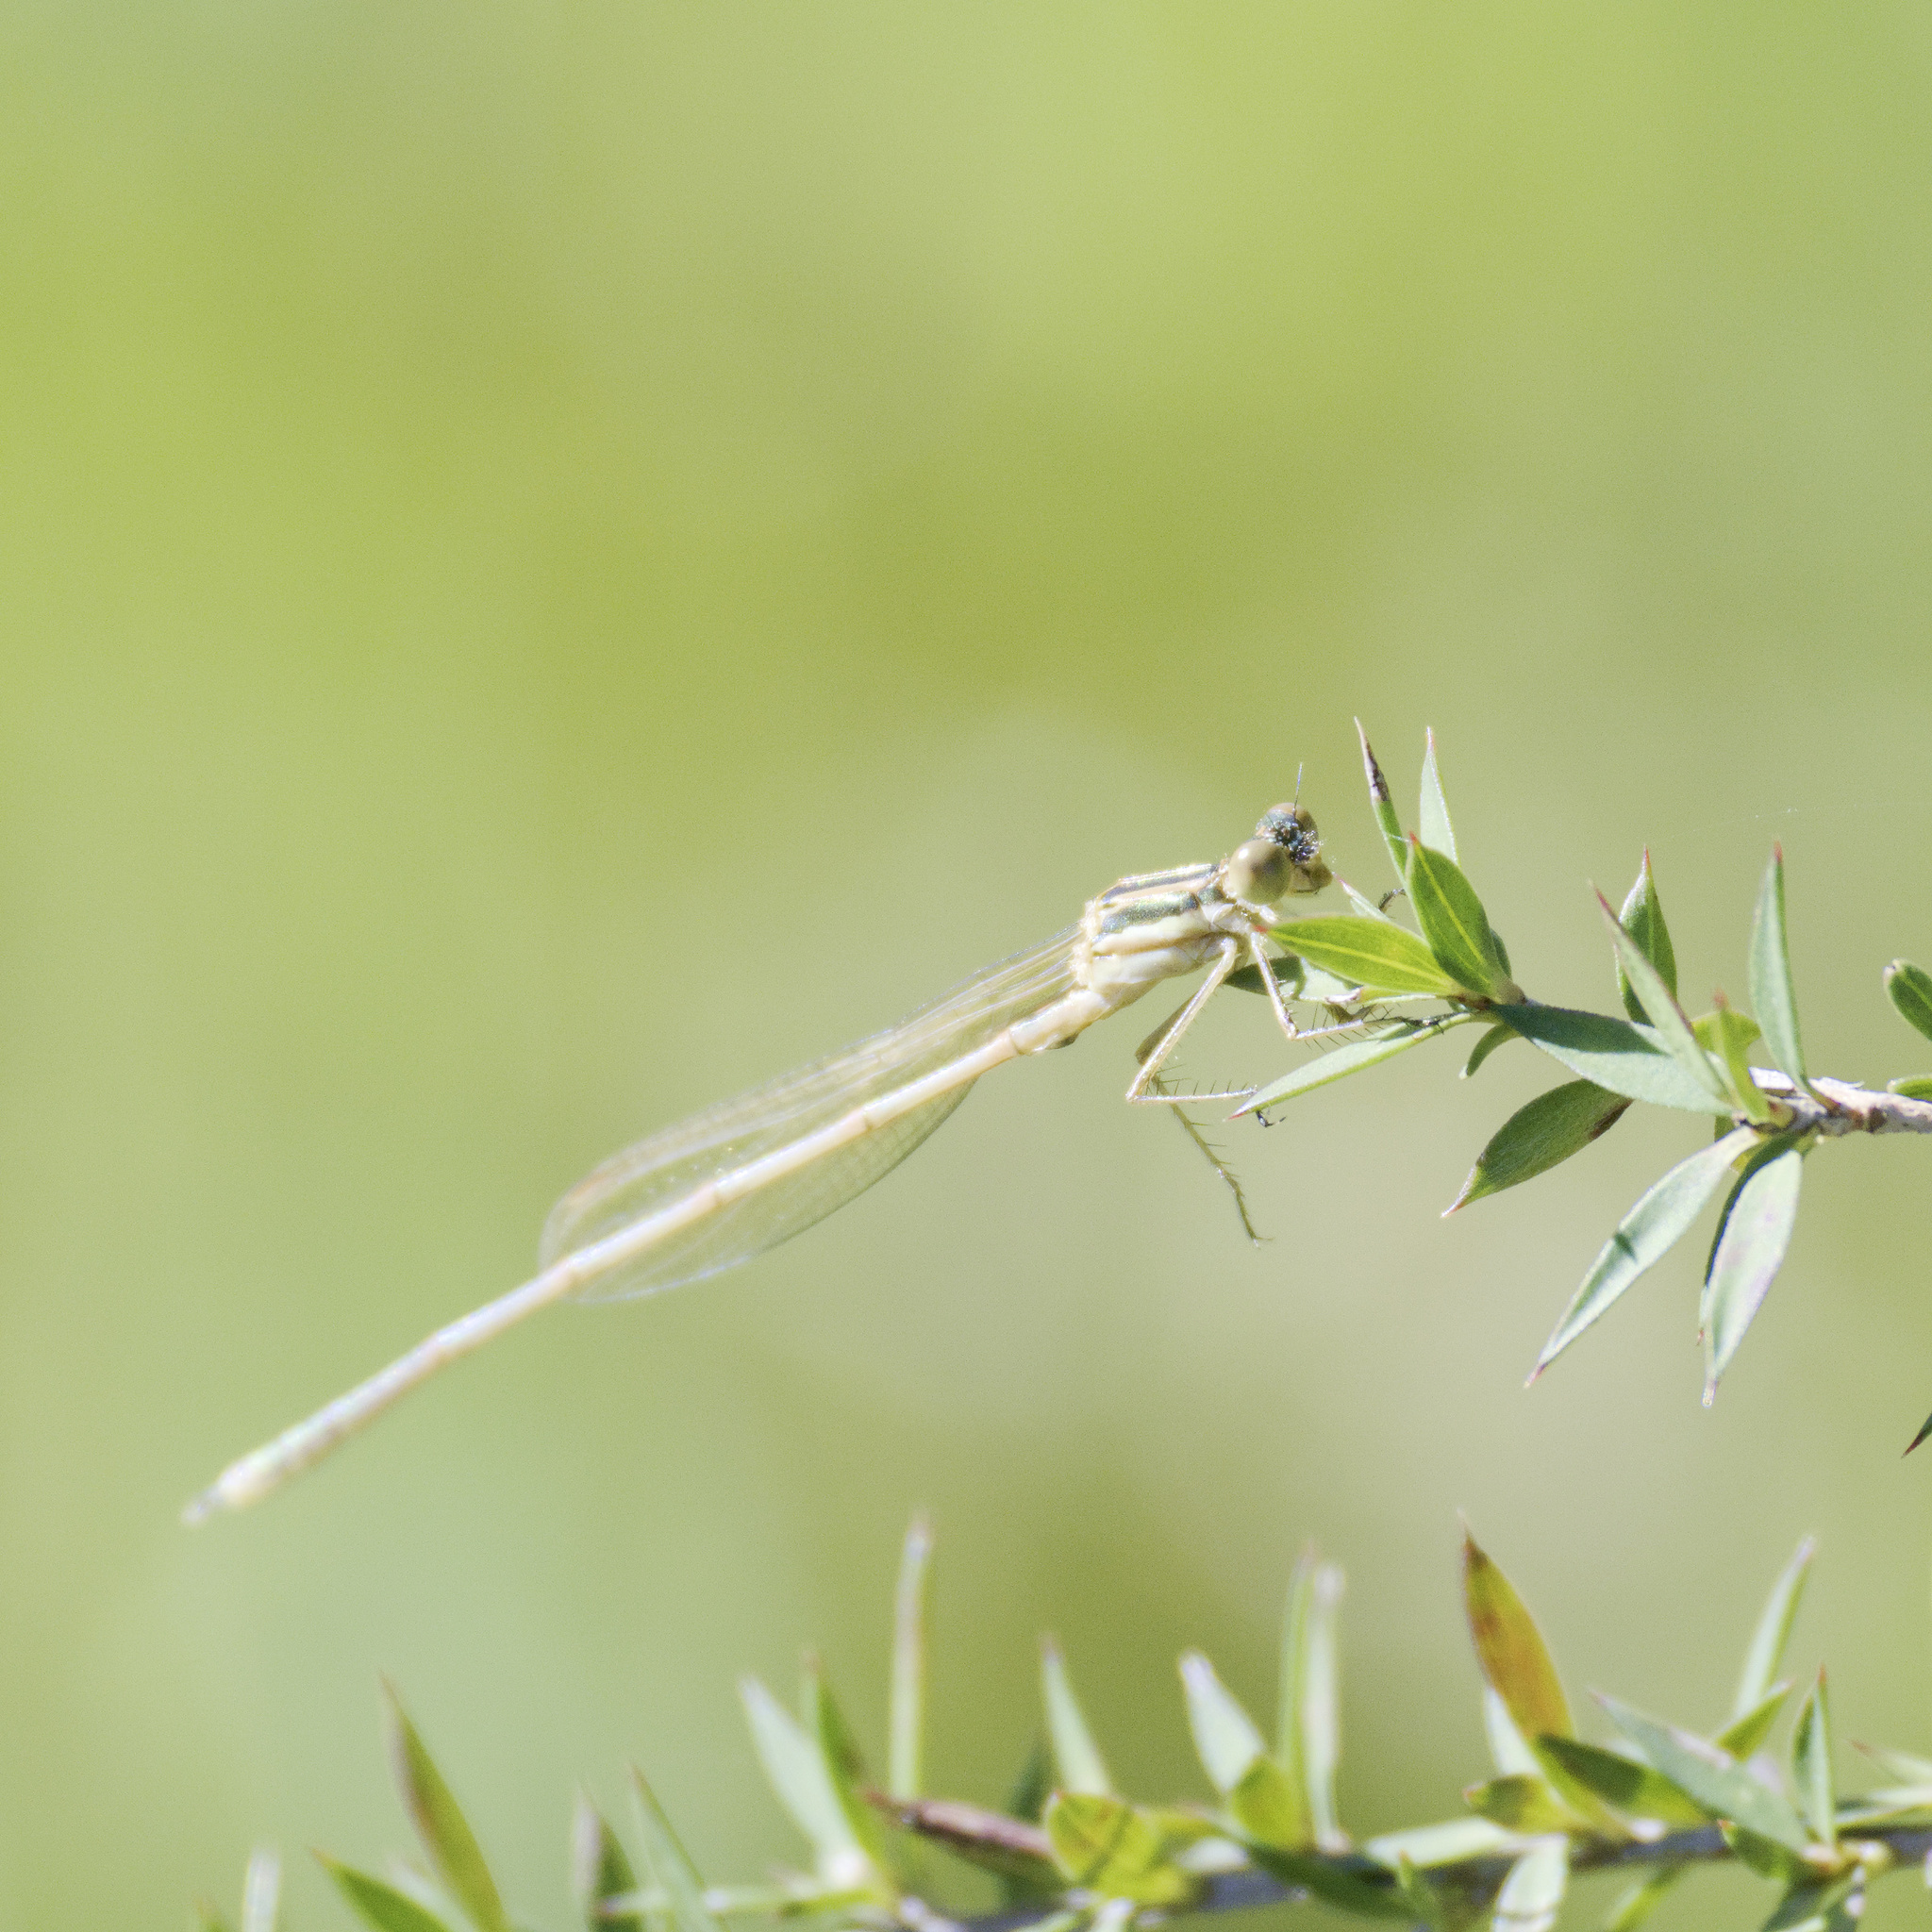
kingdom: Animalia
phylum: Arthropoda
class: Insecta
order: Odonata
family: Lestidae
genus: Austrolestes
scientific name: Austrolestes analis
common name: Slender ringtail
